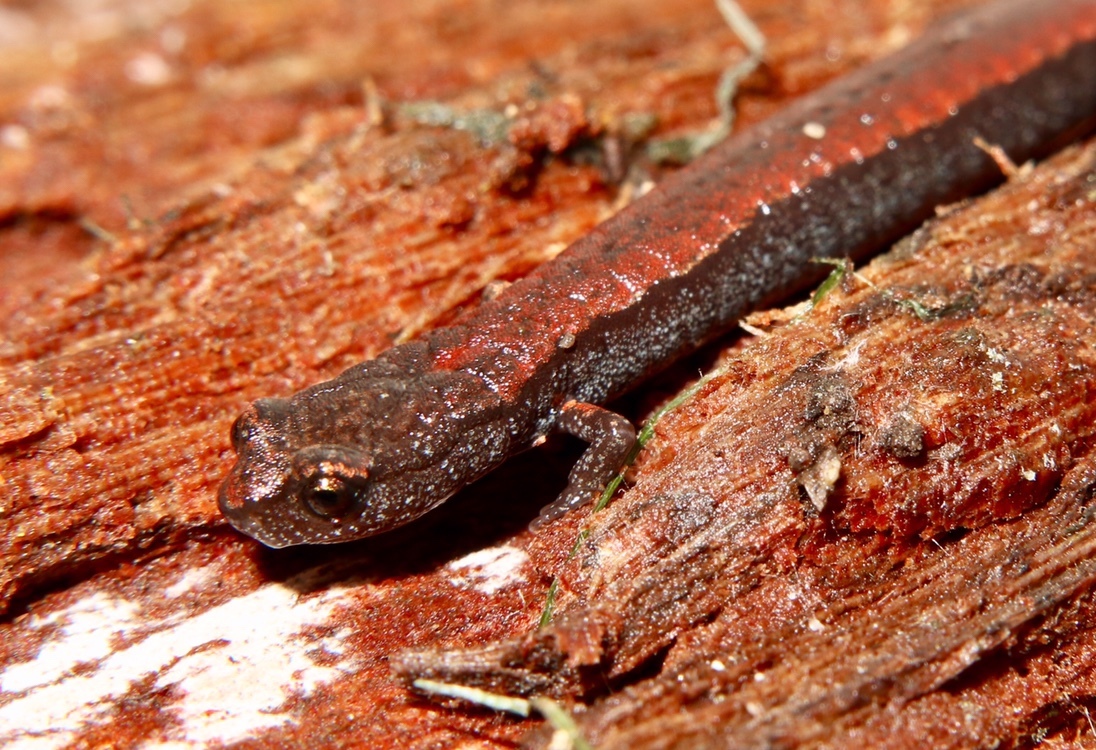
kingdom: Animalia
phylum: Chordata
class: Amphibia
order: Caudata
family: Plethodontidae
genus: Batrachoseps
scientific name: Batrachoseps gavilanensis
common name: Gabilan mountains slender salamander
